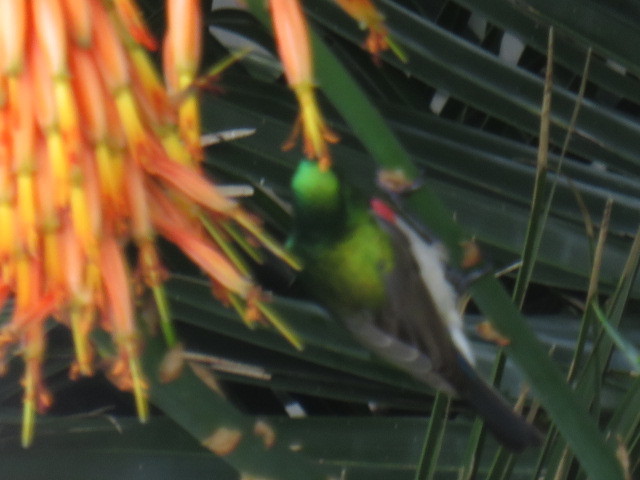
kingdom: Animalia
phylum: Chordata
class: Aves
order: Passeriformes
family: Nectariniidae
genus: Cinnyris
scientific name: Cinnyris chalybeus
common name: Southern double-collared sunbird
